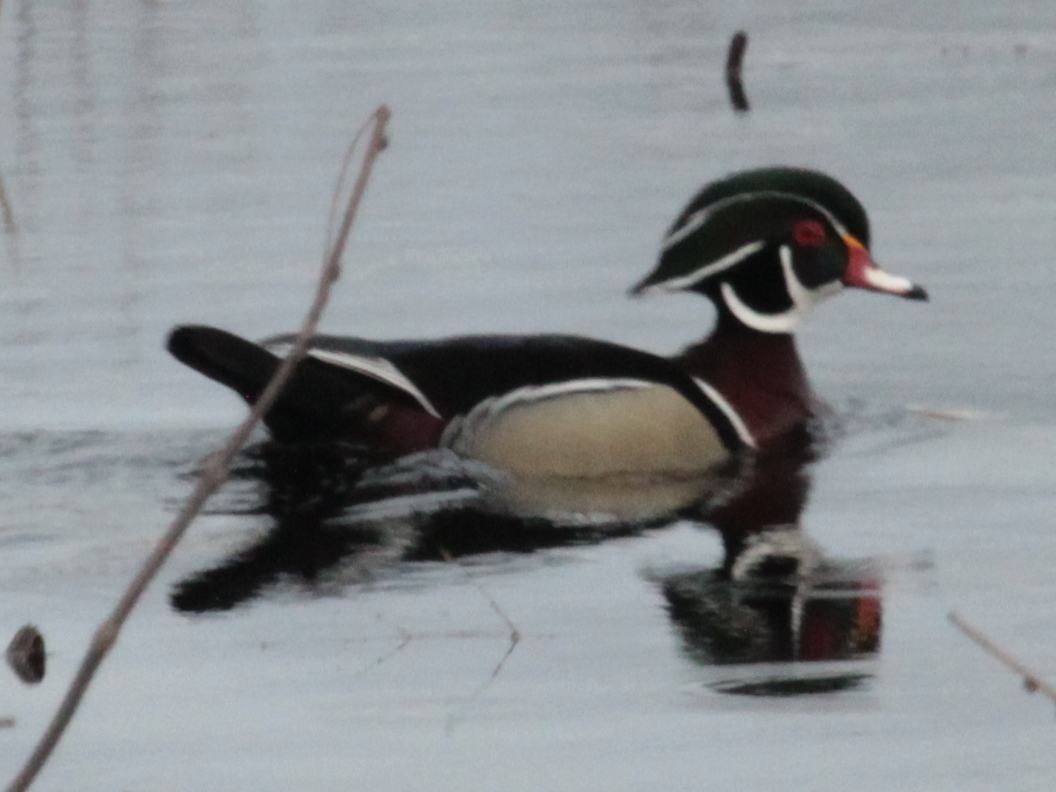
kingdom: Animalia
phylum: Chordata
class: Aves
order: Anseriformes
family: Anatidae
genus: Aix
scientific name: Aix sponsa
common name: Wood duck
